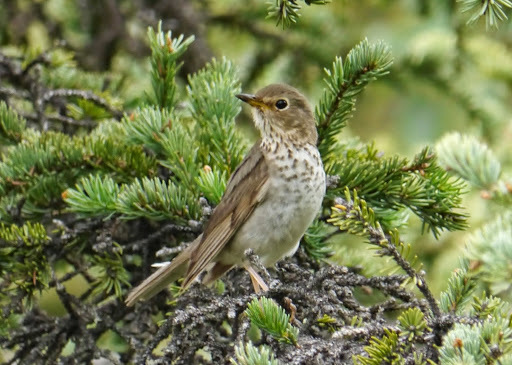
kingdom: Animalia
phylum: Chordata
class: Aves
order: Passeriformes
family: Turdidae
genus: Catharus
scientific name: Catharus ustulatus
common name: Swainson's thrush
